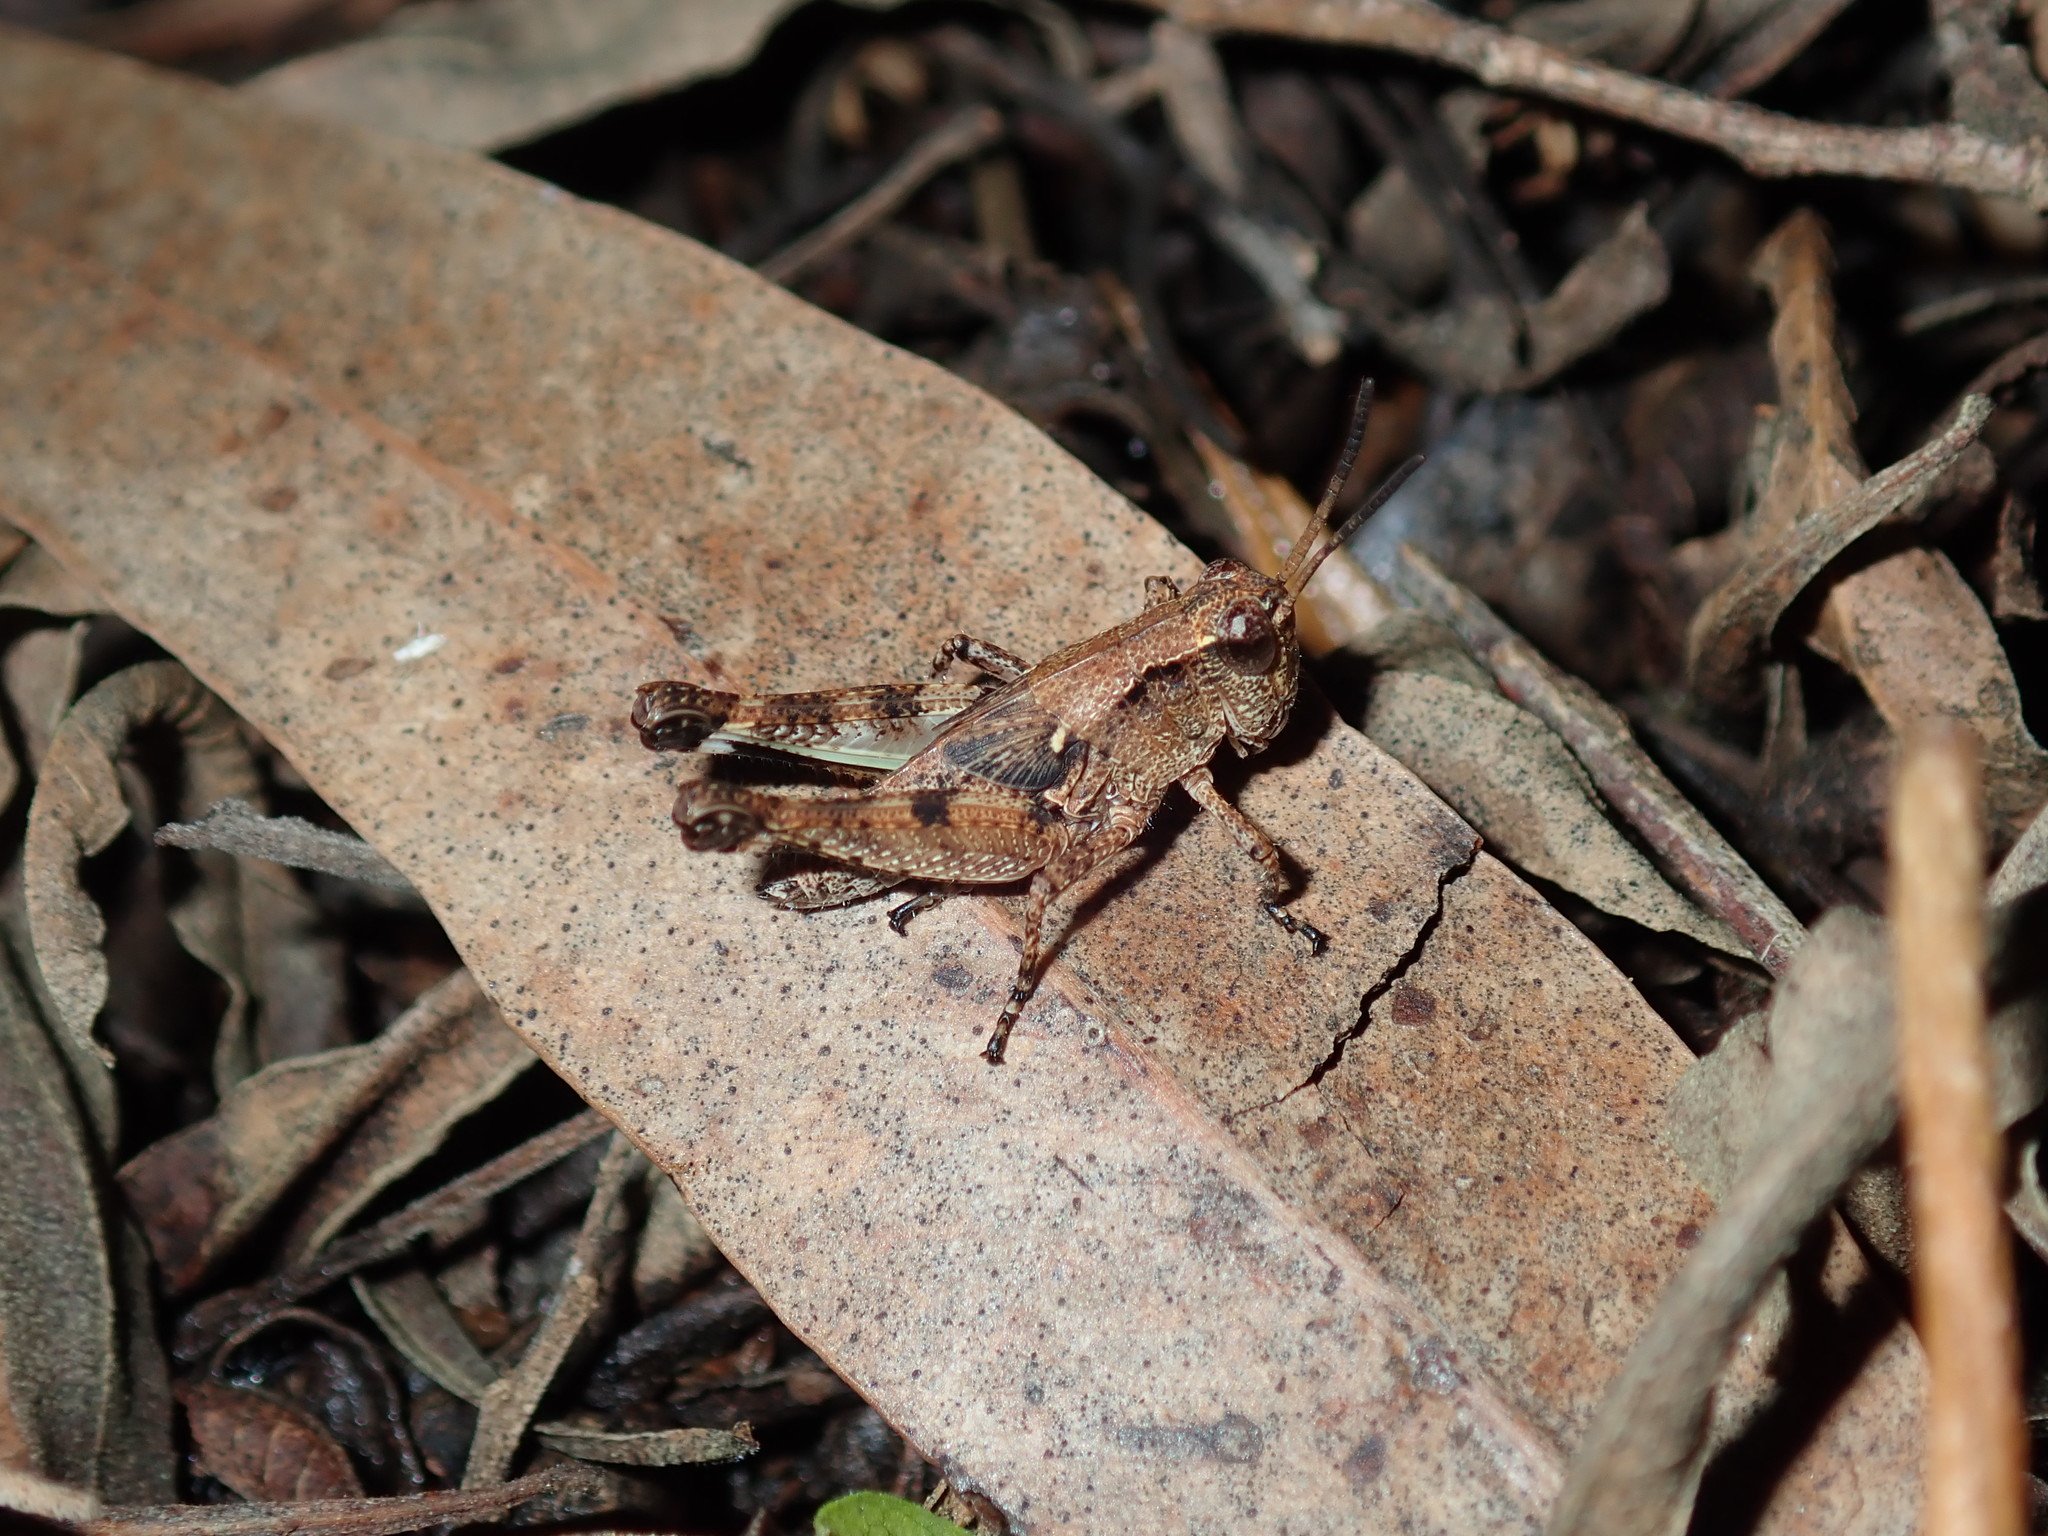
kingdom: Animalia
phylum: Arthropoda
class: Insecta
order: Orthoptera
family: Acrididae
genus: Phaulacridium
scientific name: Phaulacridium vittatum
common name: Wingless grasshopper
